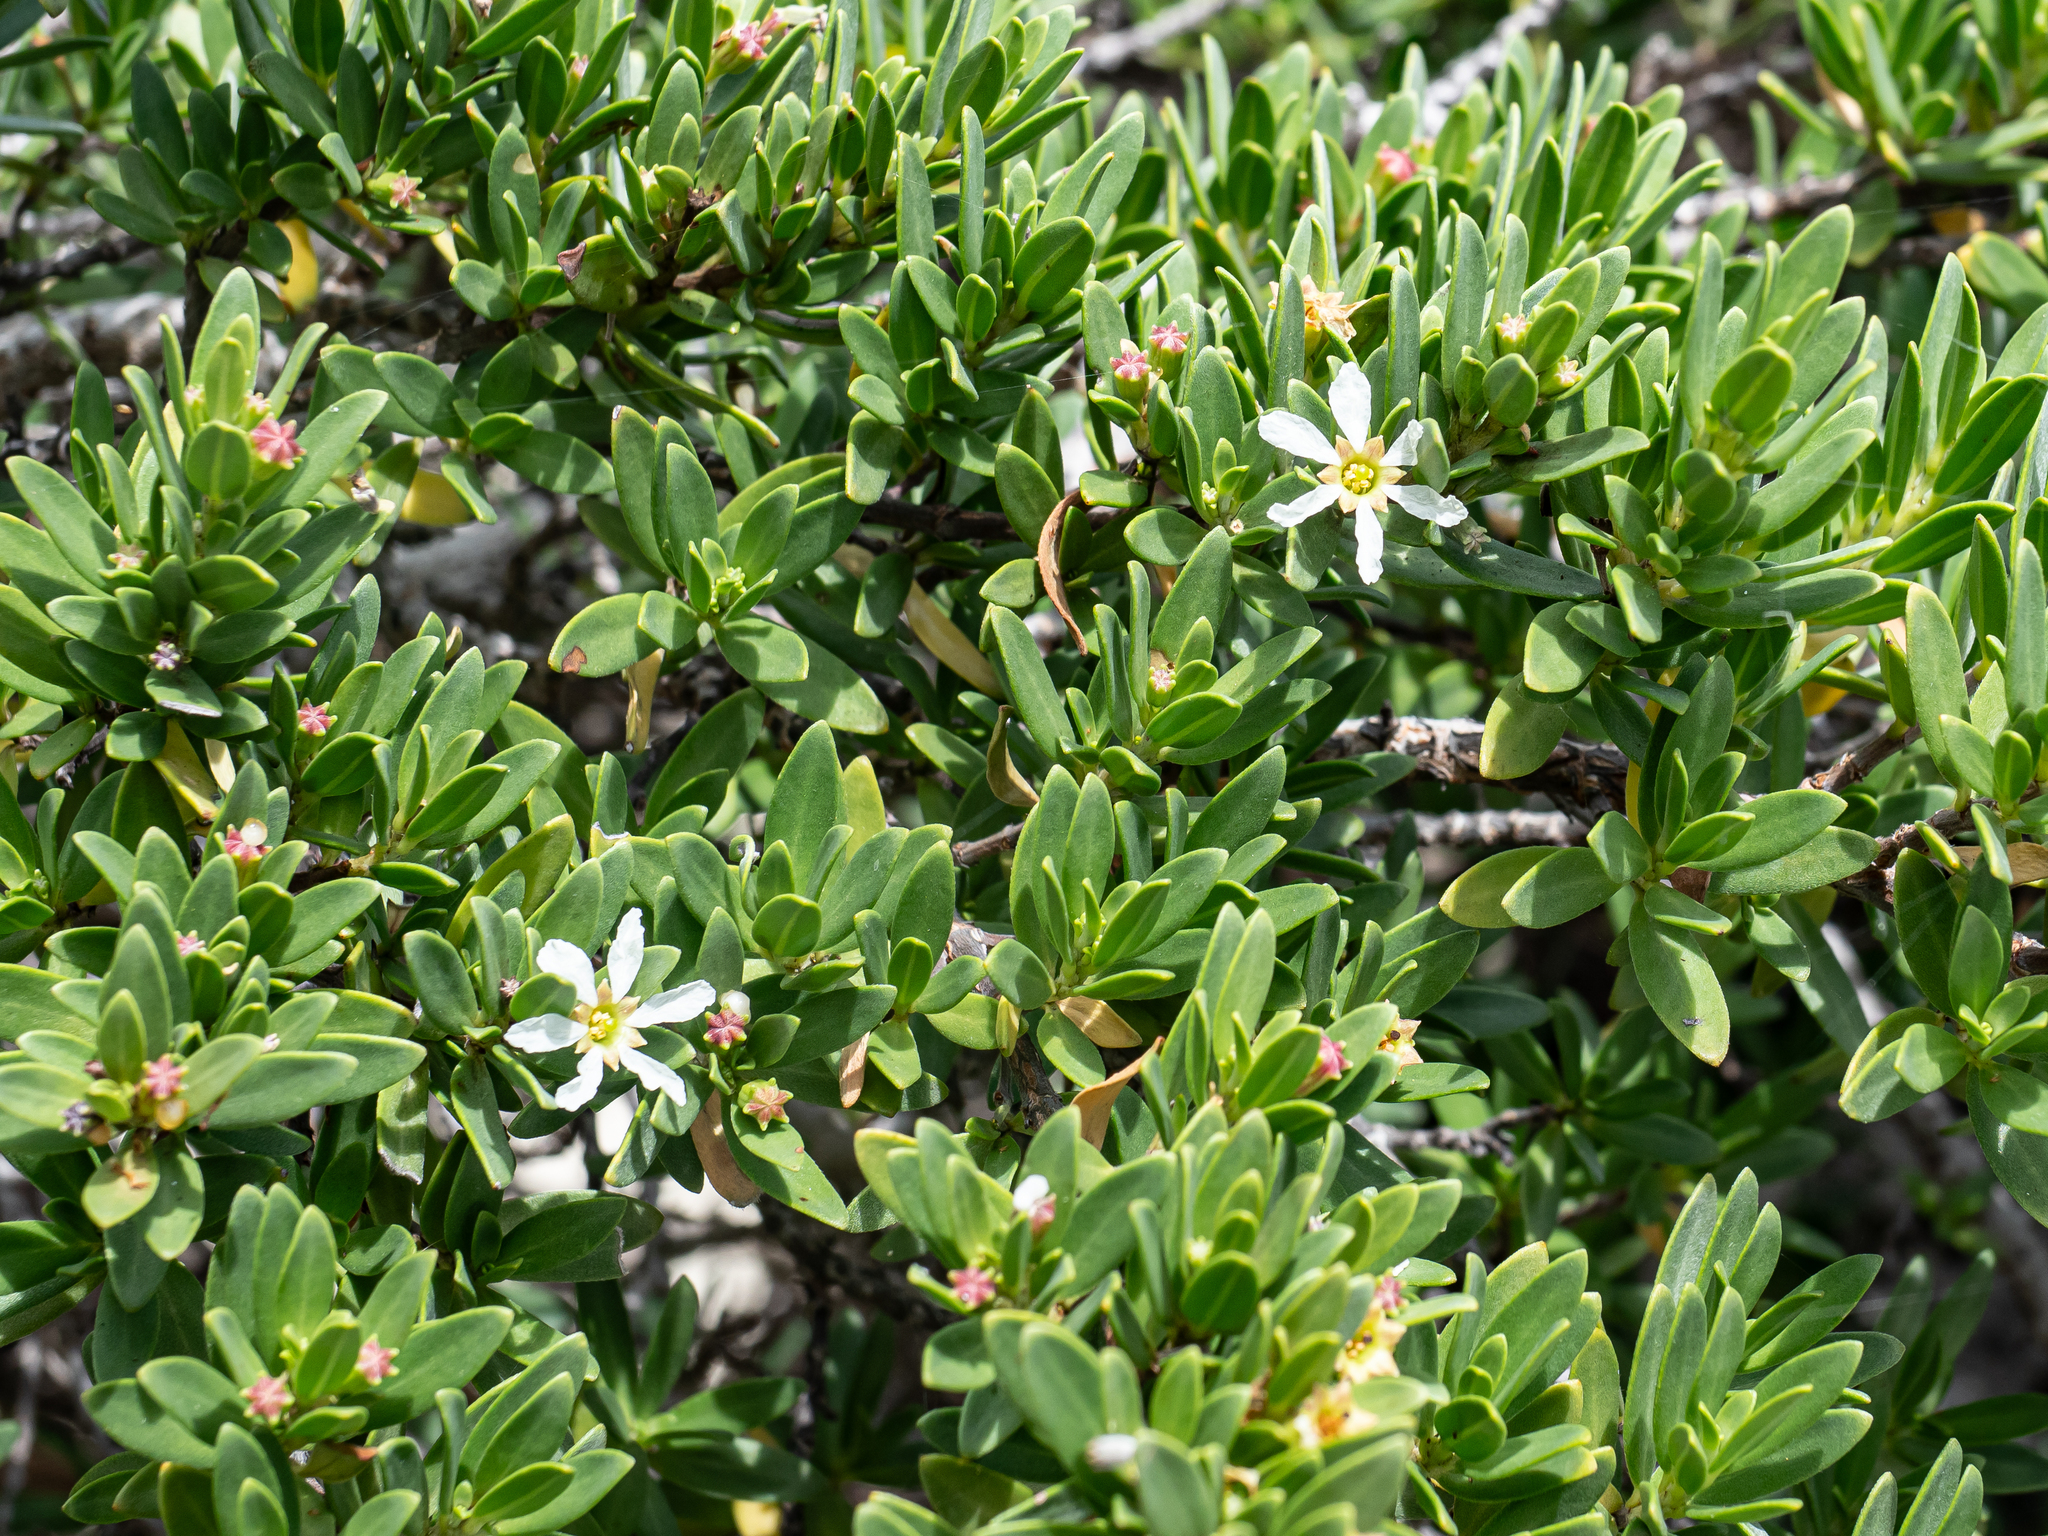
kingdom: Plantae
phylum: Tracheophyta
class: Magnoliopsida
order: Myrtales
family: Lythraceae
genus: Pemphis
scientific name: Pemphis acidula
